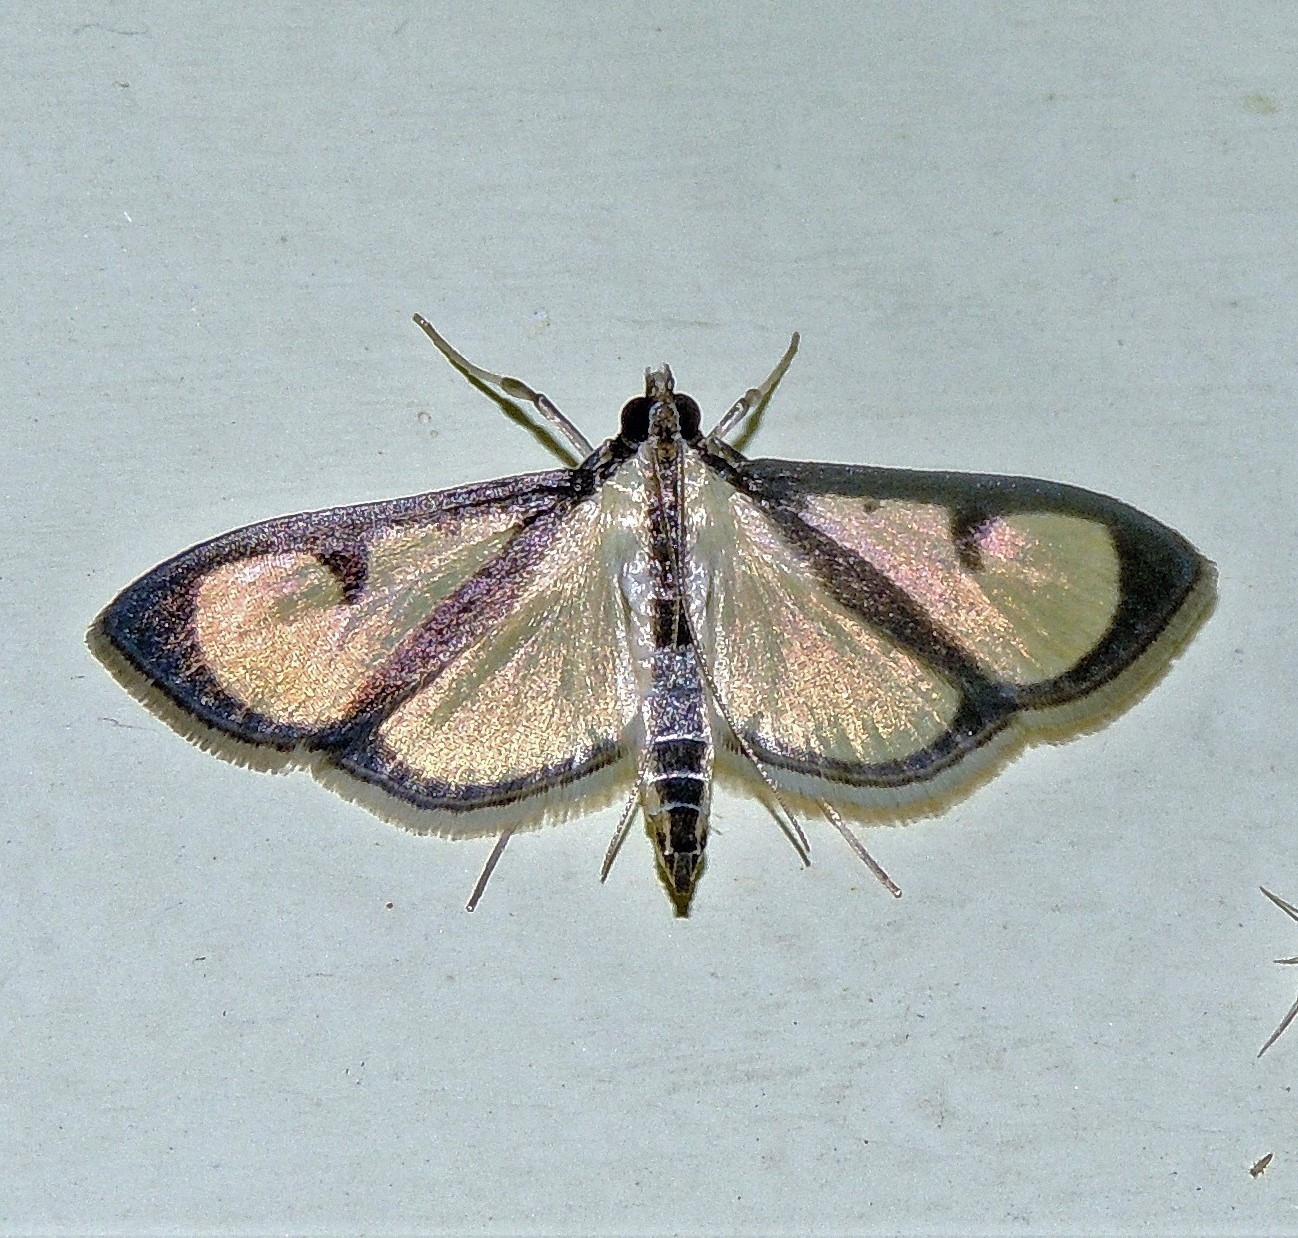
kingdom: Animalia
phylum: Arthropoda
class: Insecta
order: Lepidoptera
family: Crambidae
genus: Hyalea
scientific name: Hyalea pallidalis
